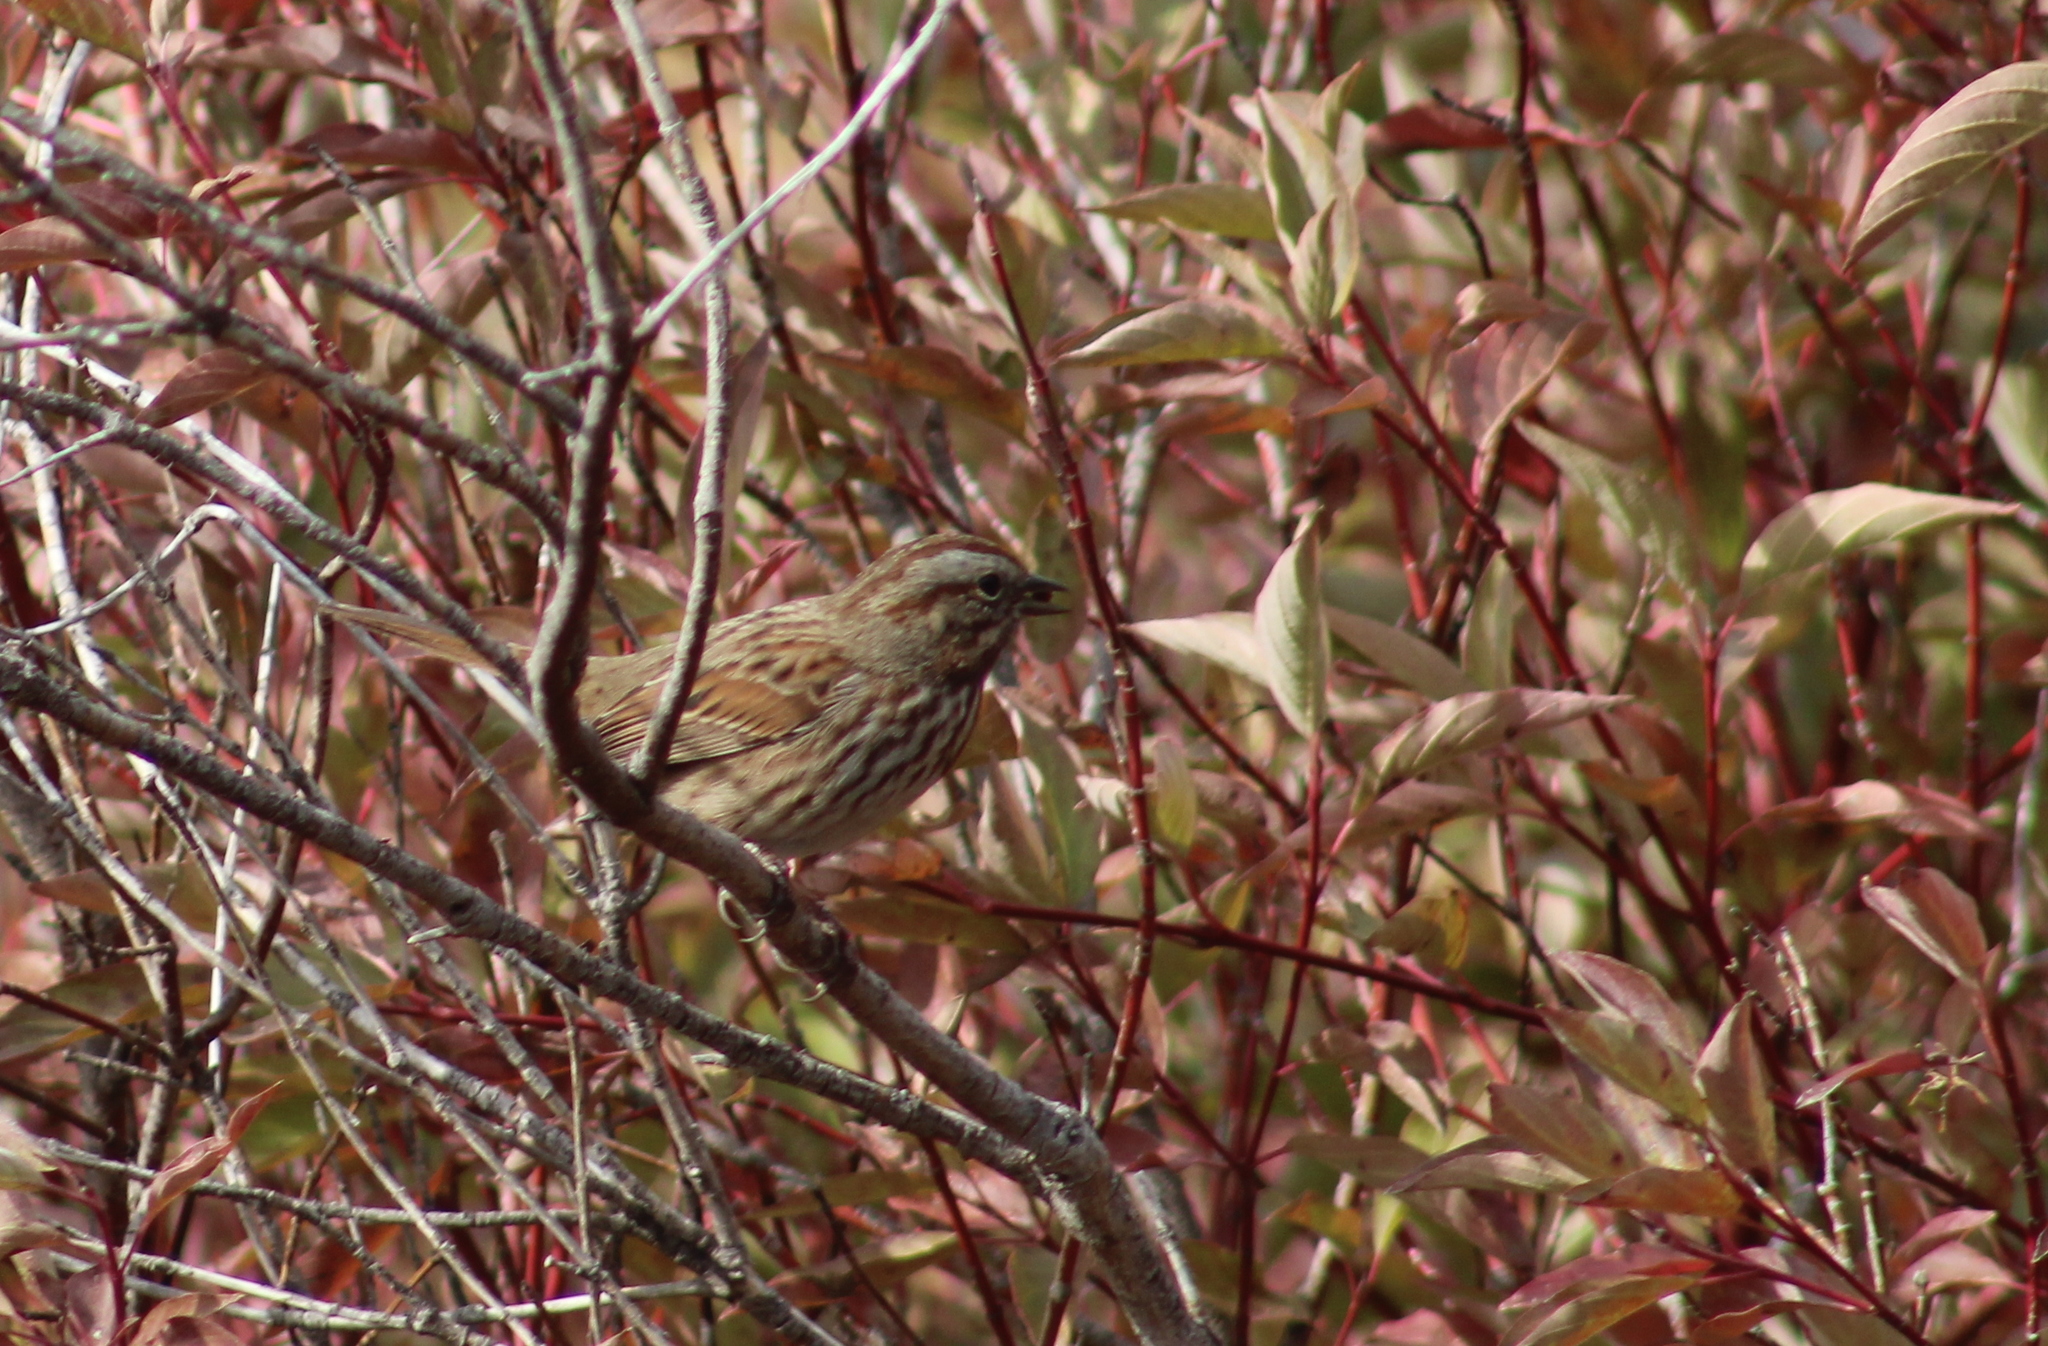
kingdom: Animalia
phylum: Chordata
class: Aves
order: Passeriformes
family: Passerellidae
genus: Melospiza
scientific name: Melospiza melodia
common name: Song sparrow
